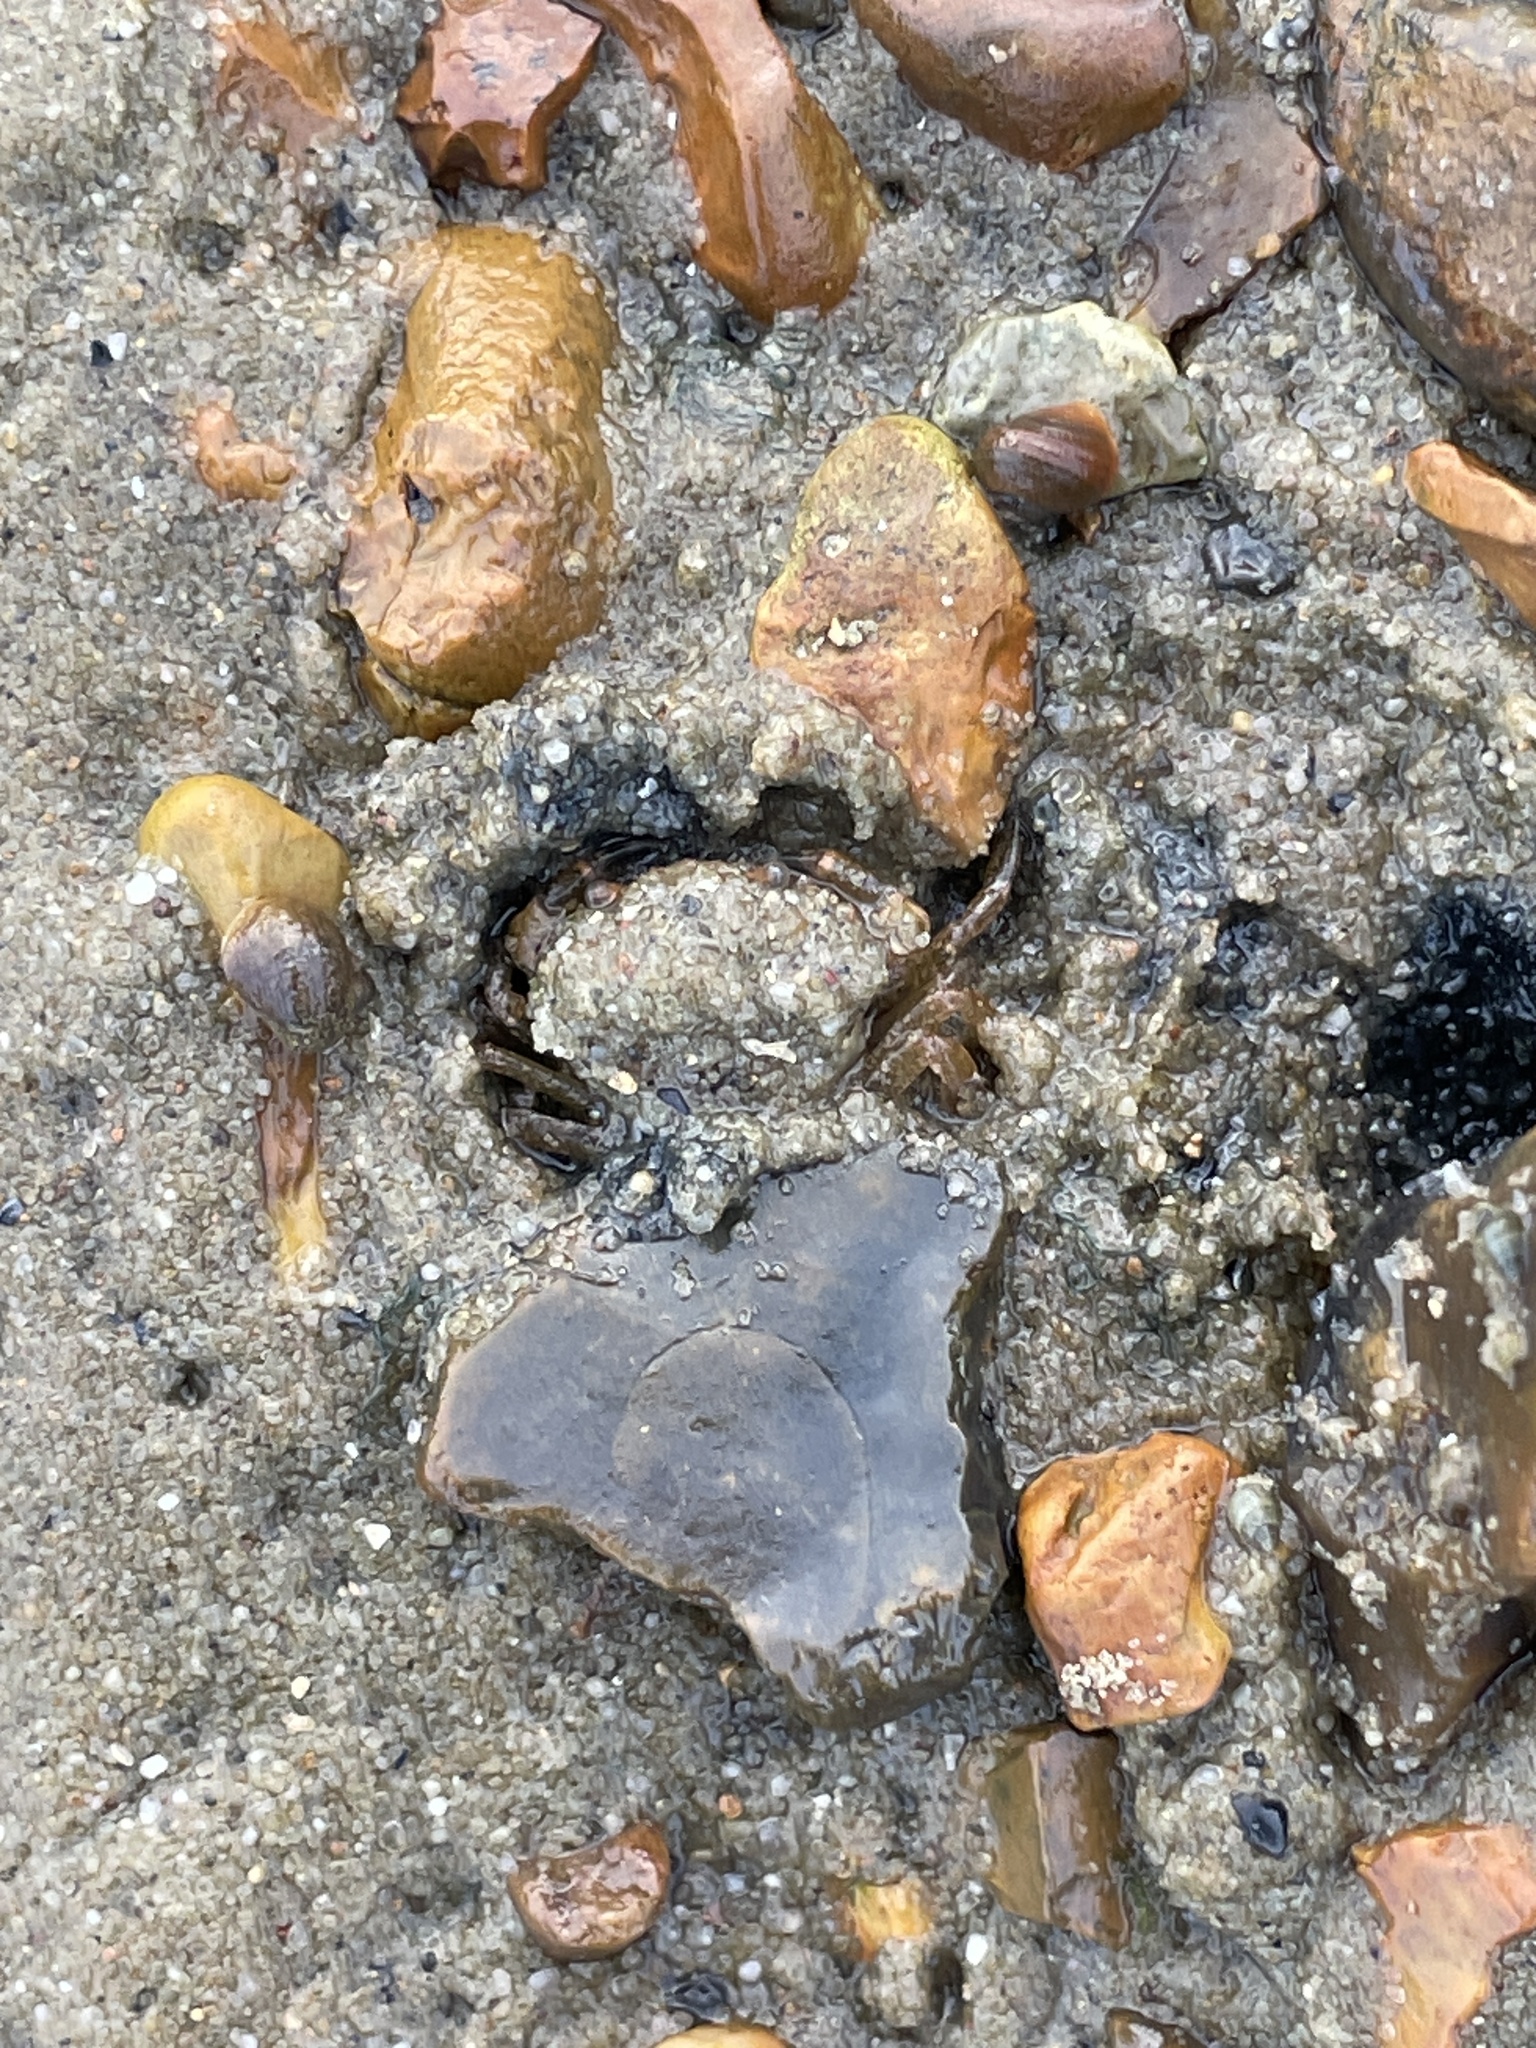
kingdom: Animalia
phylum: Arthropoda
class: Malacostraca
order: Decapoda
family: Carcinidae
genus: Carcinus
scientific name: Carcinus maenas
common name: European green crab
